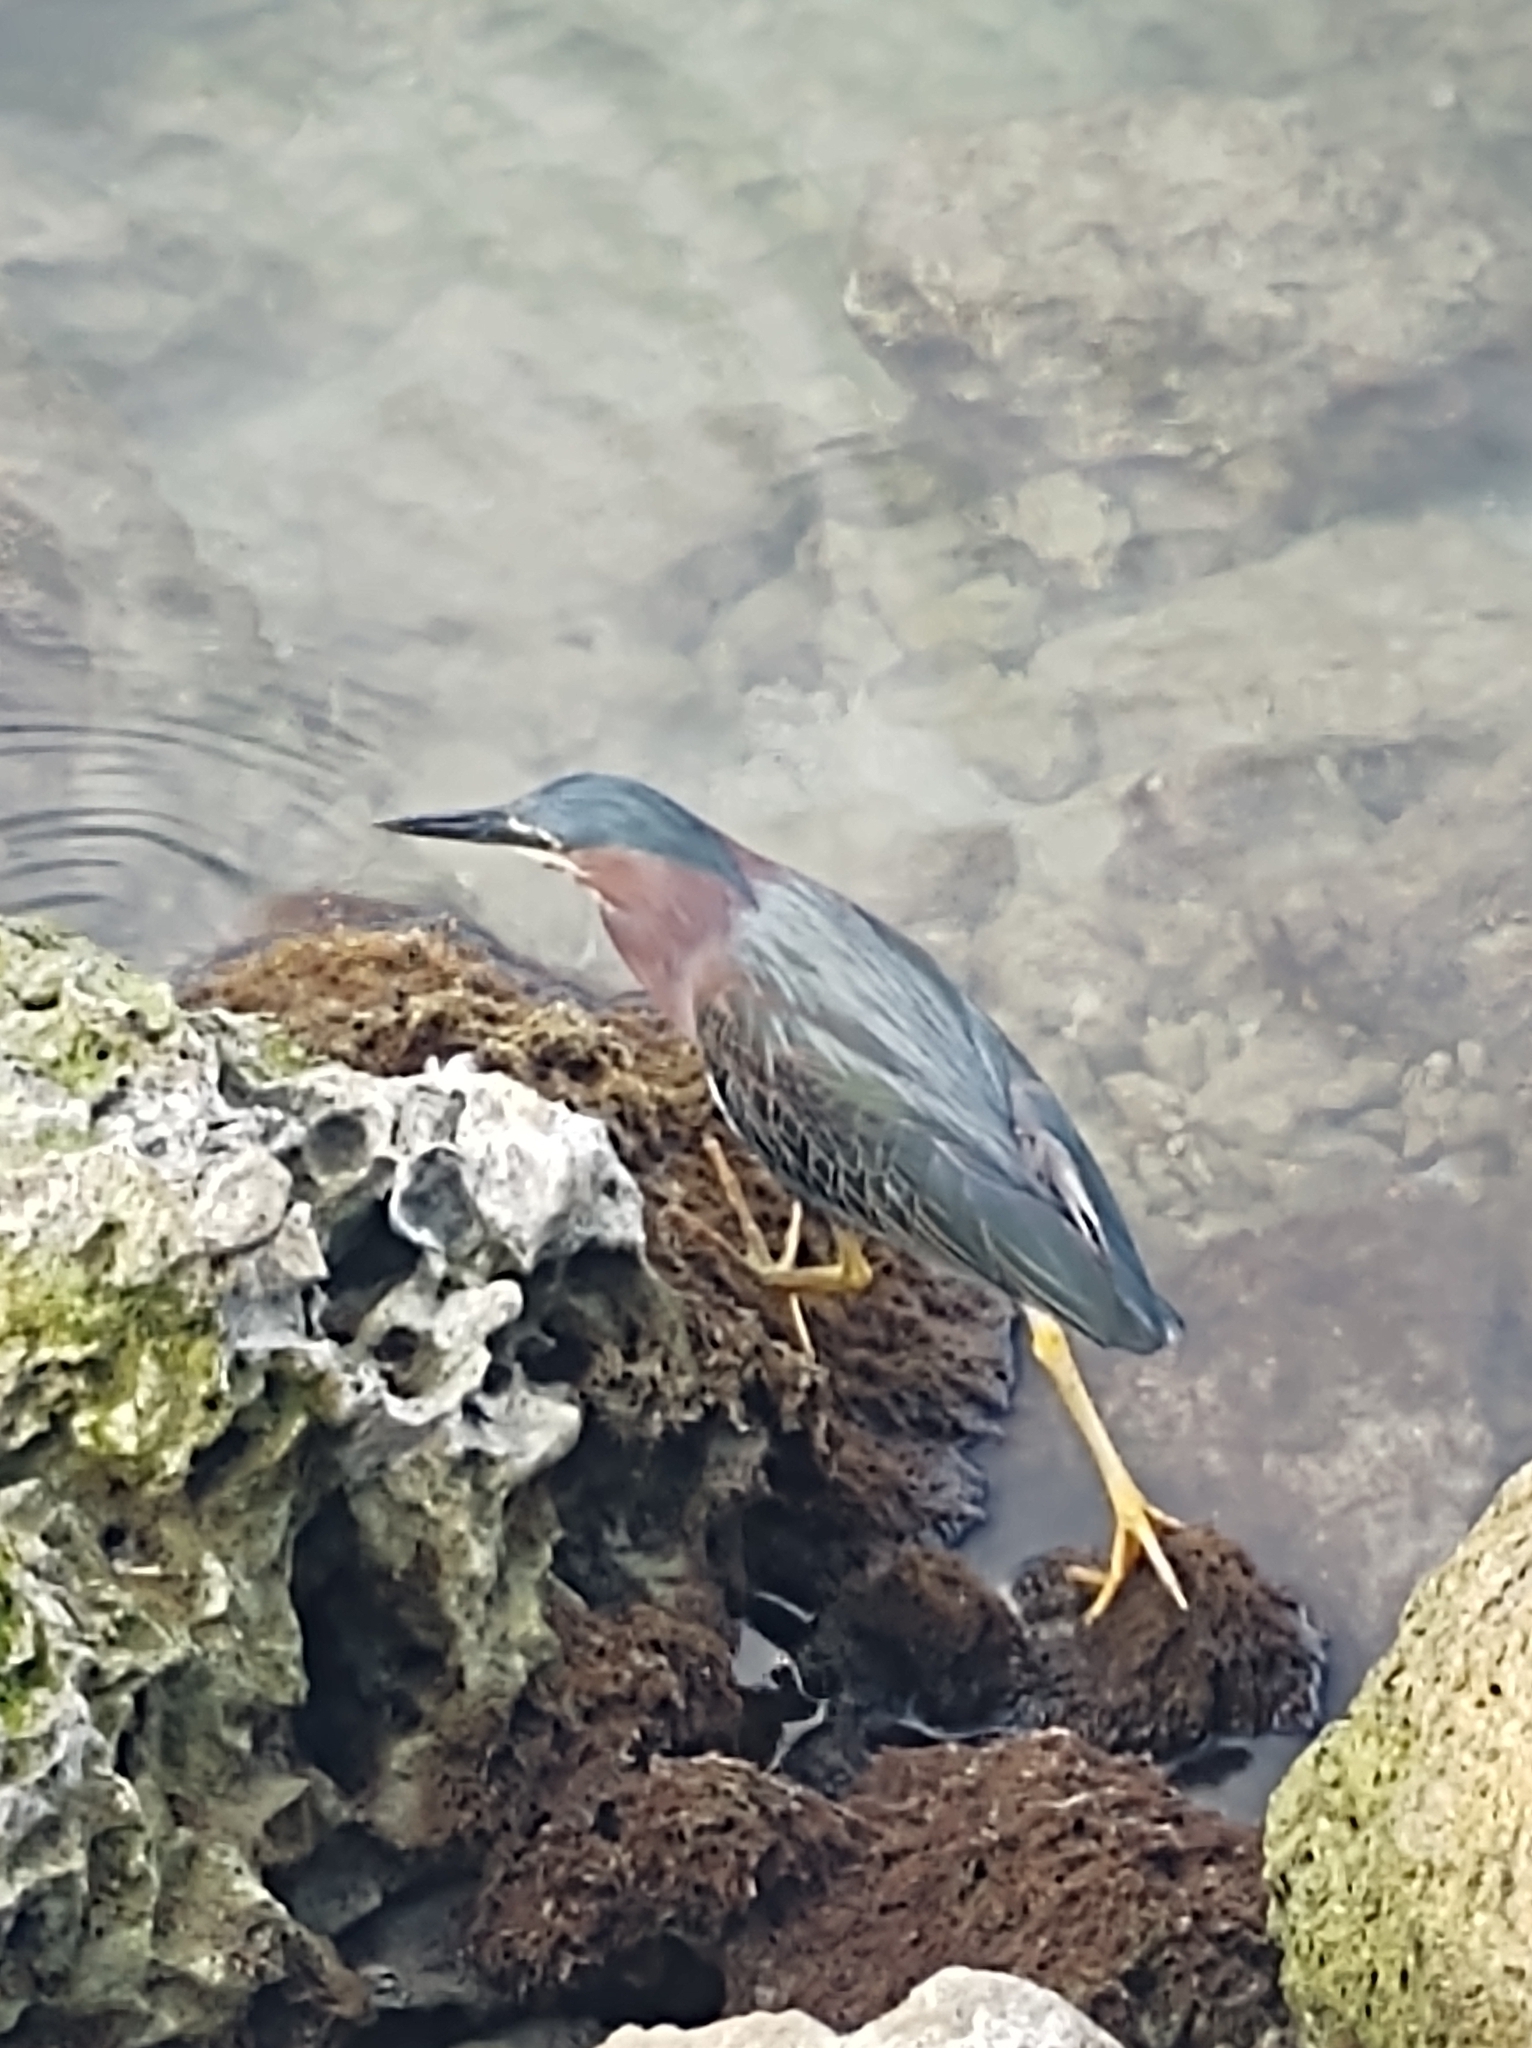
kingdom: Animalia
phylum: Chordata
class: Aves
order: Pelecaniformes
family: Ardeidae
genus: Butorides
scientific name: Butorides virescens
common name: Green heron
